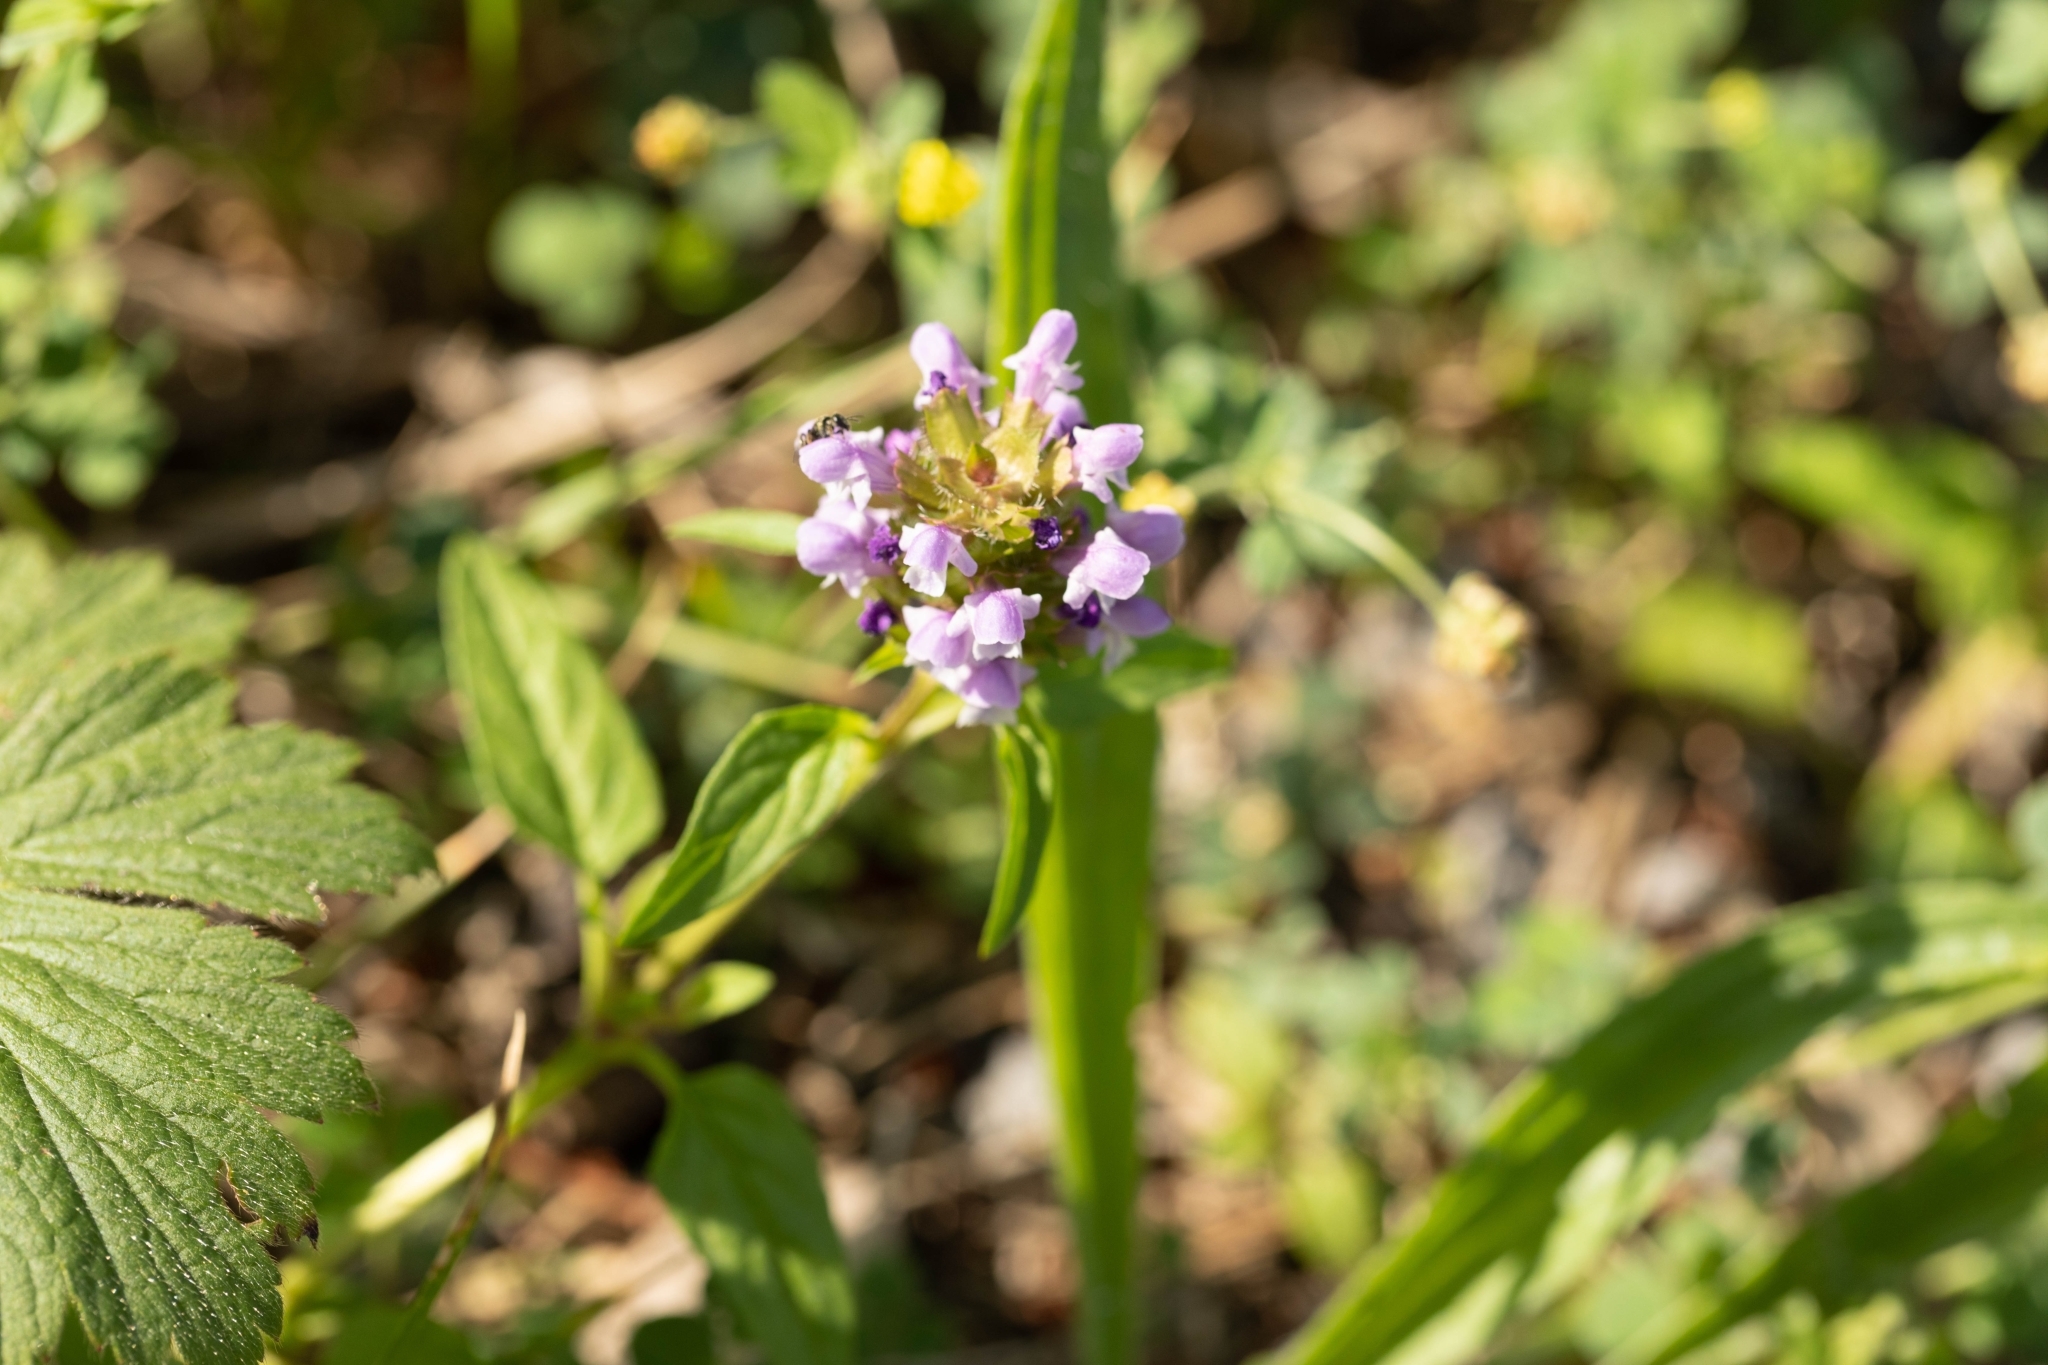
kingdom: Plantae
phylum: Tracheophyta
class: Magnoliopsida
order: Lamiales
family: Lamiaceae
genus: Prunella
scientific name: Prunella vulgaris
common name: Heal-all
